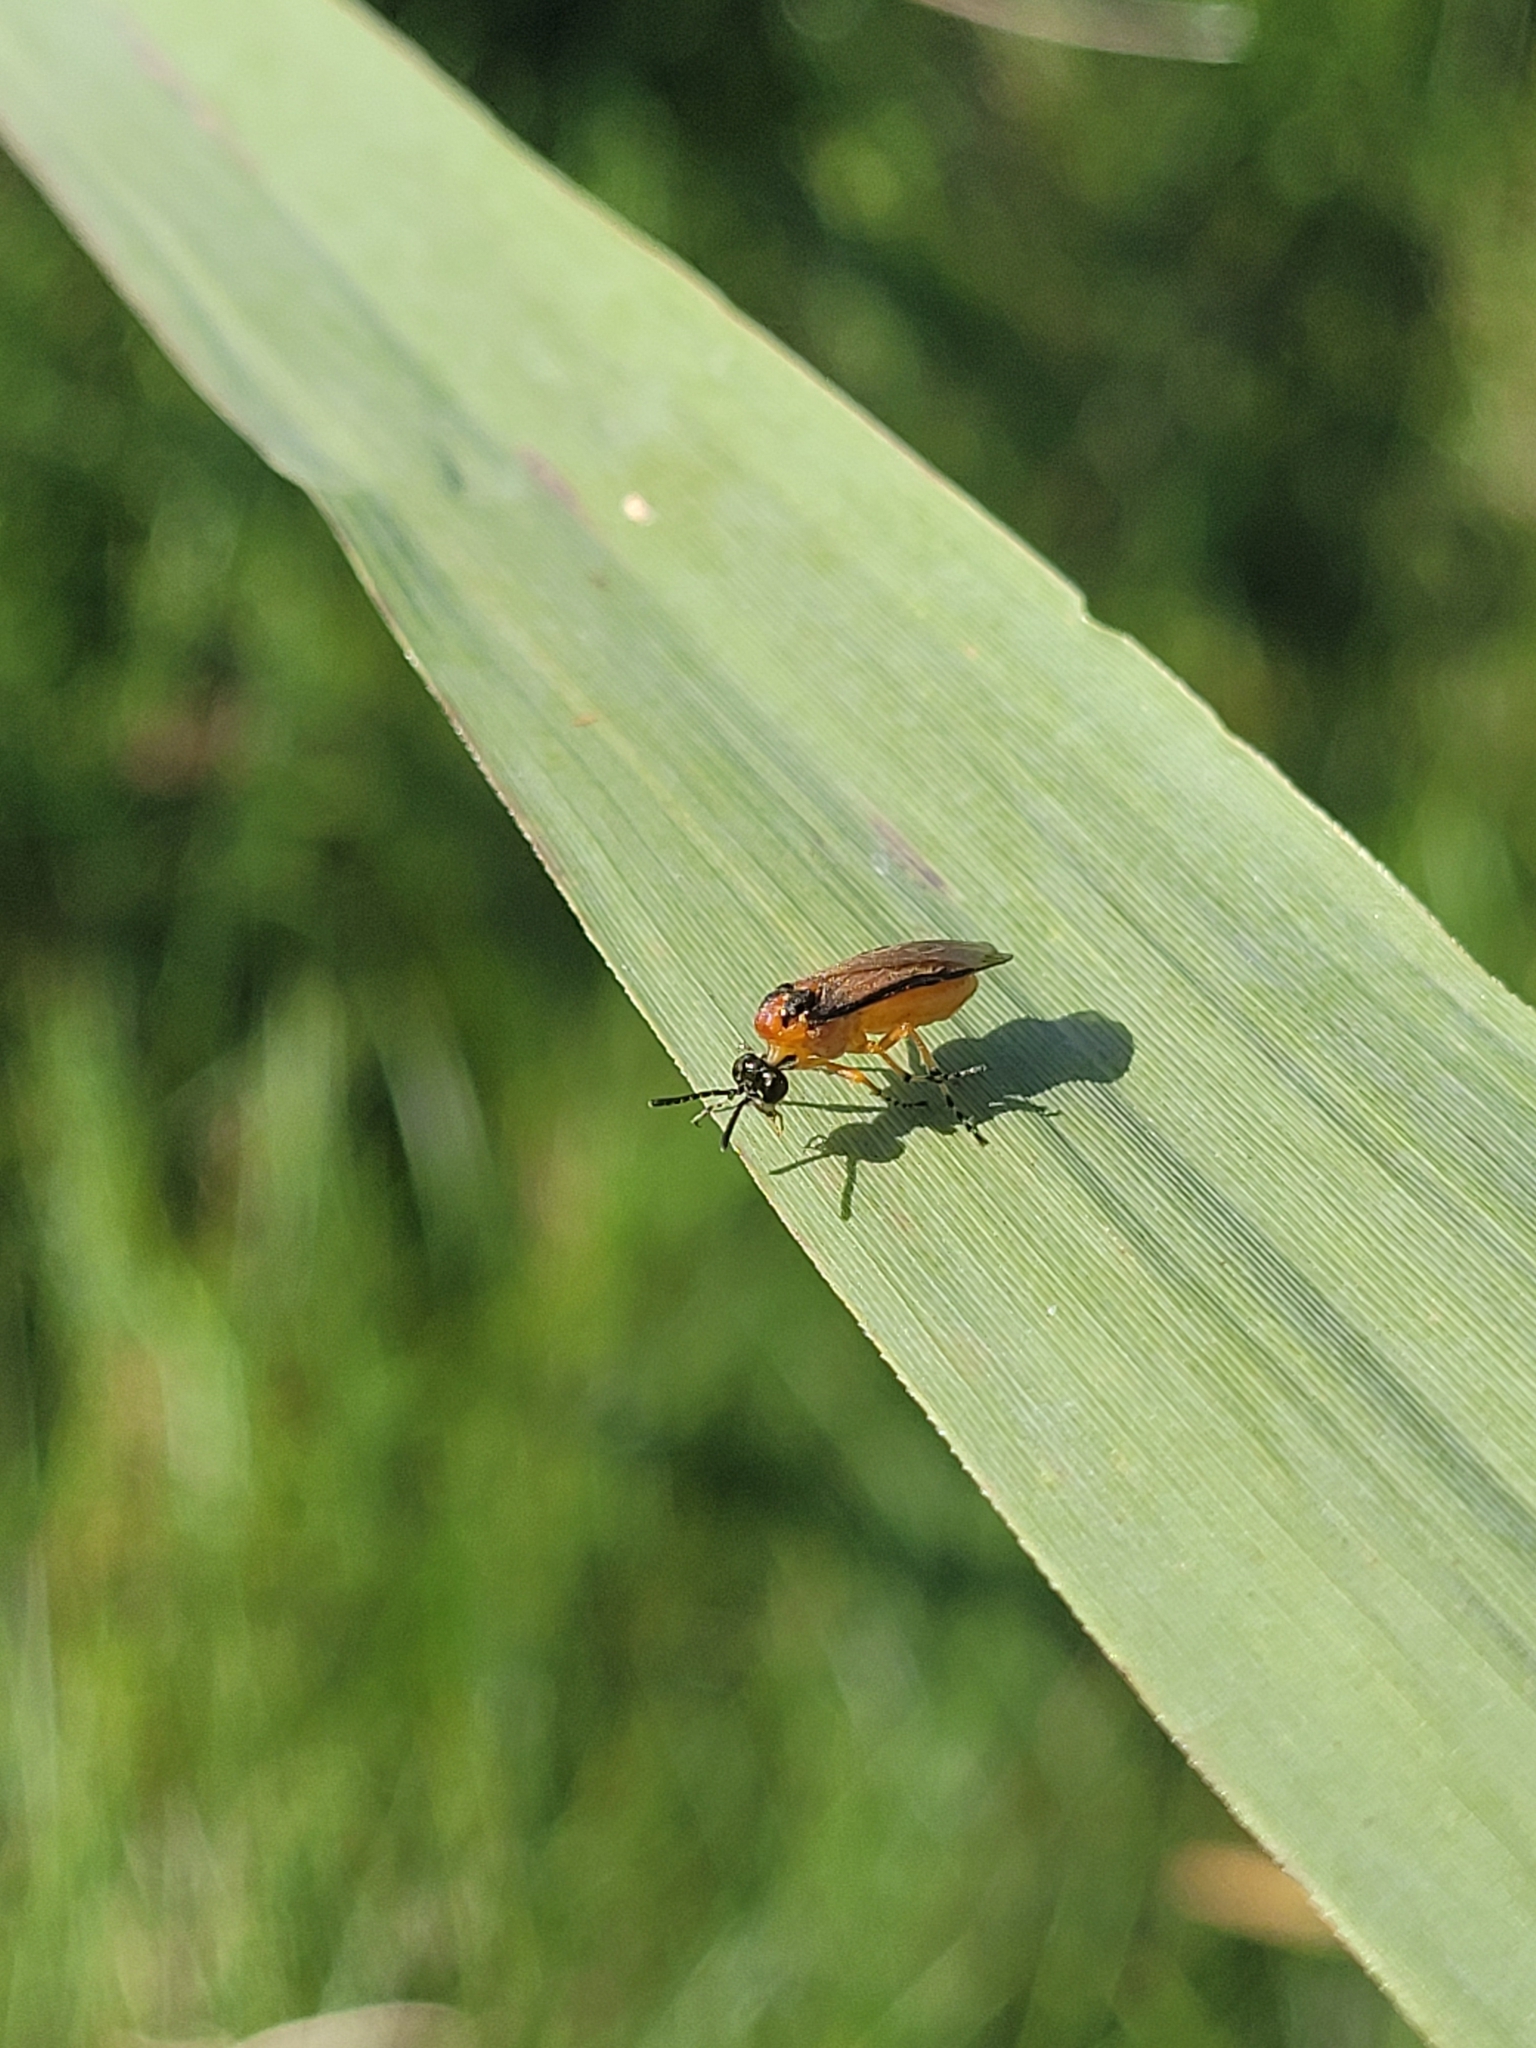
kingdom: Animalia
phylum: Arthropoda
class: Insecta
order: Hymenoptera
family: Tenthredinidae
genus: Athalia
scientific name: Athalia rosae
